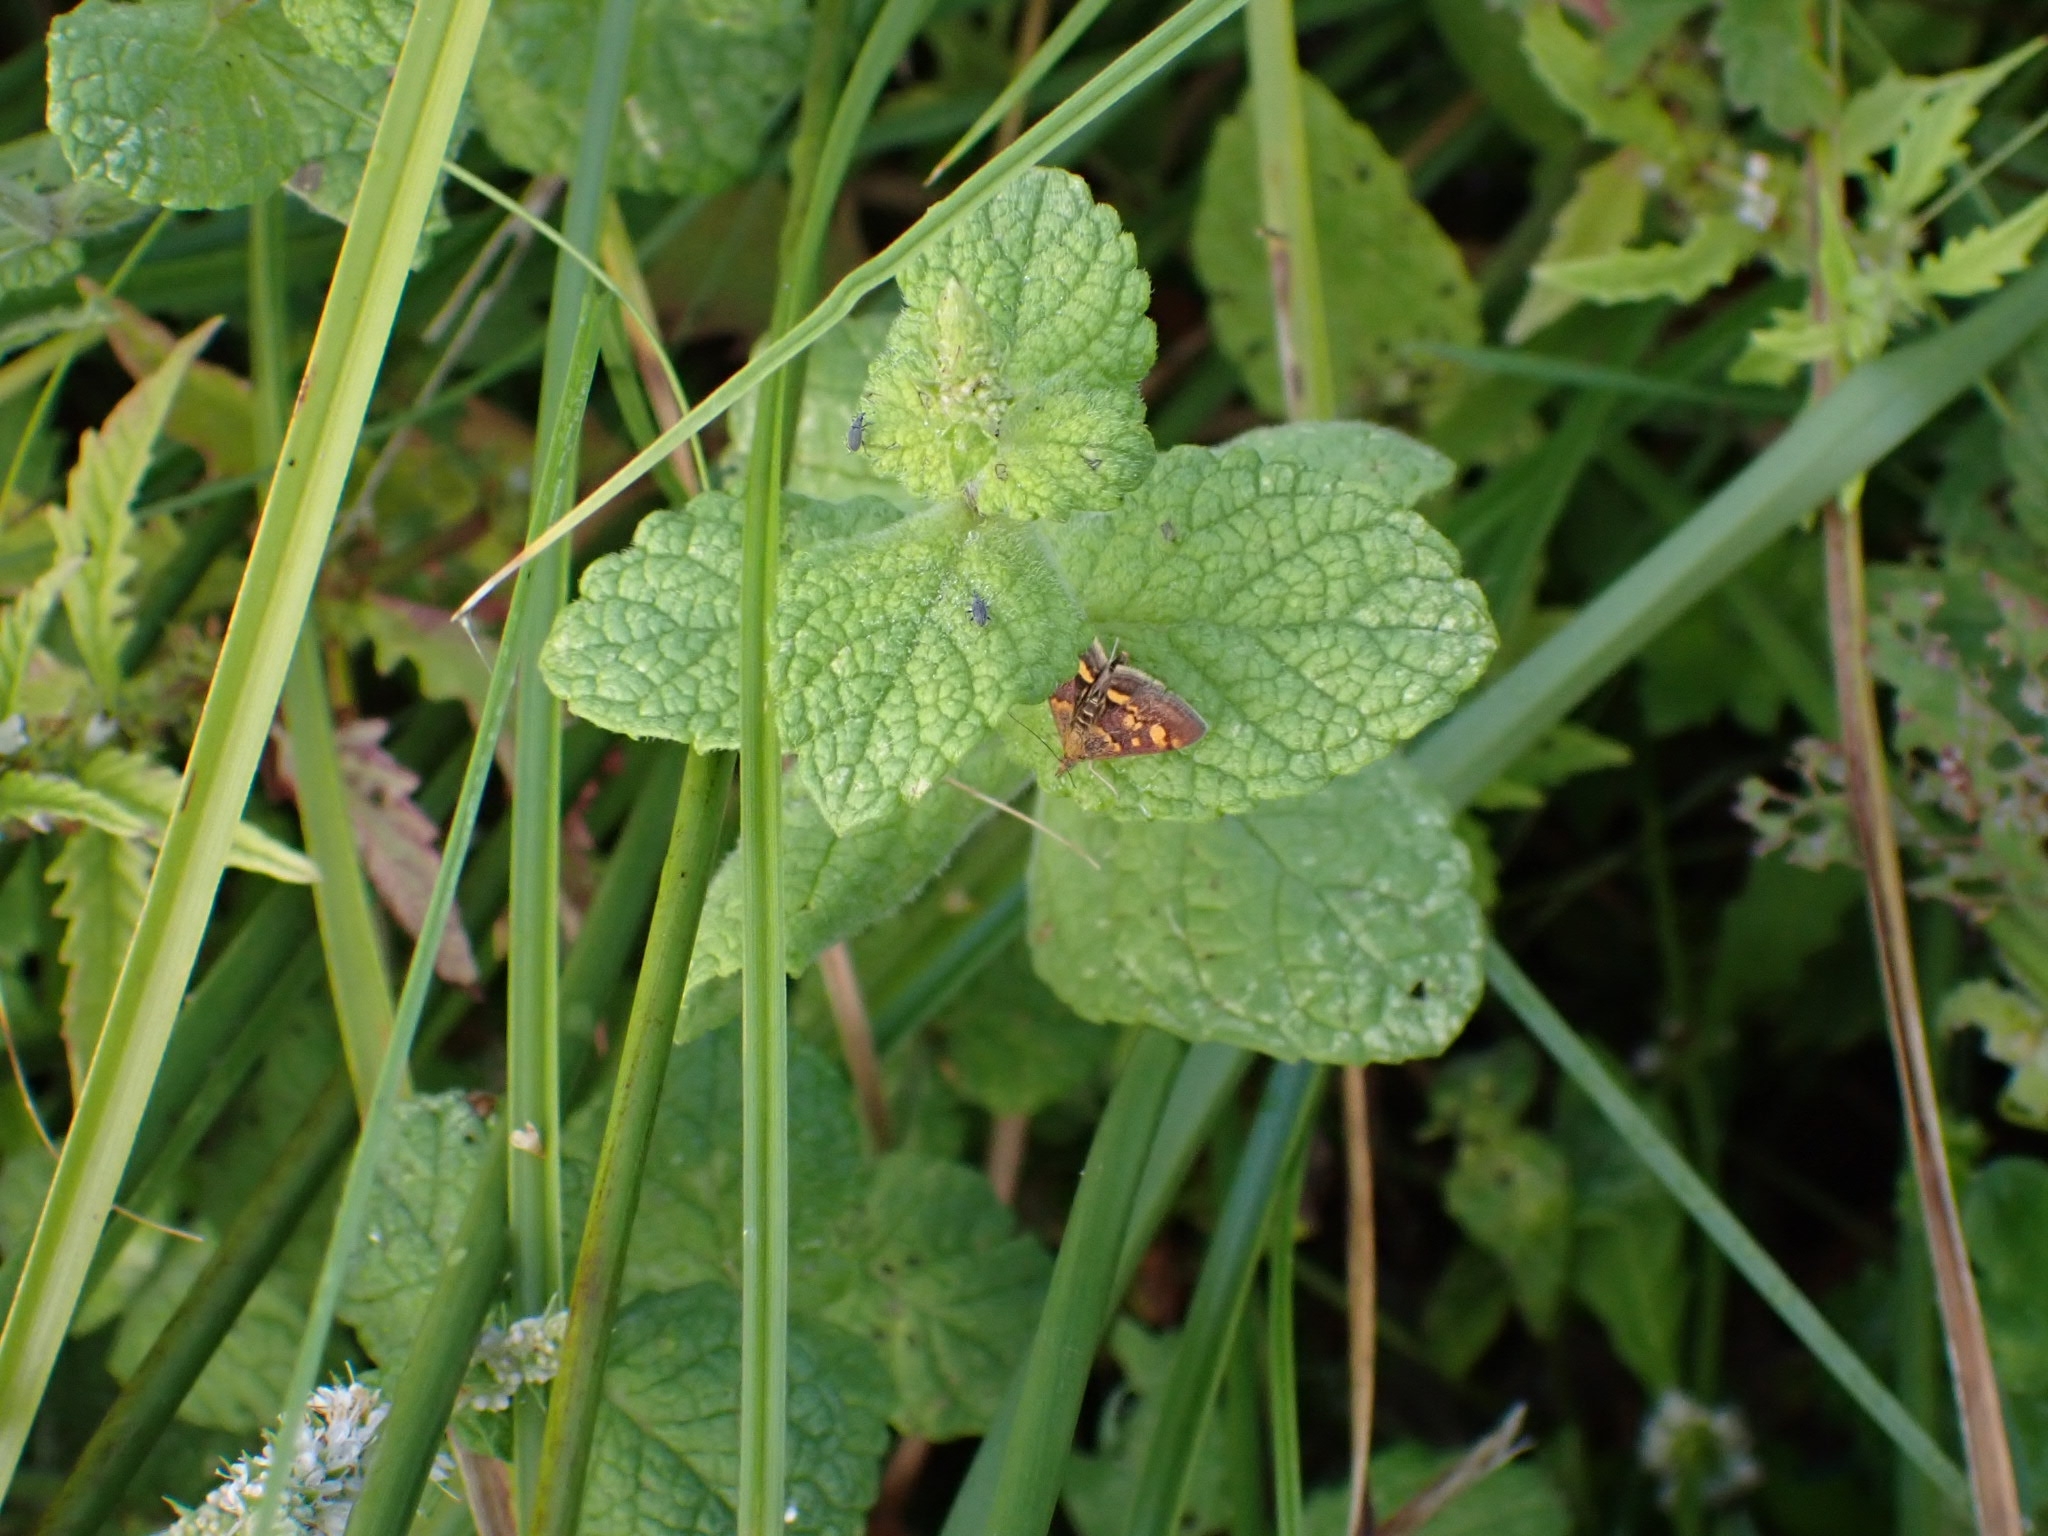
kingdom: Animalia
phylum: Arthropoda
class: Insecta
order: Lepidoptera
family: Crambidae
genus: Pyrausta
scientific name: Pyrausta aurata
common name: Small purple & gold
